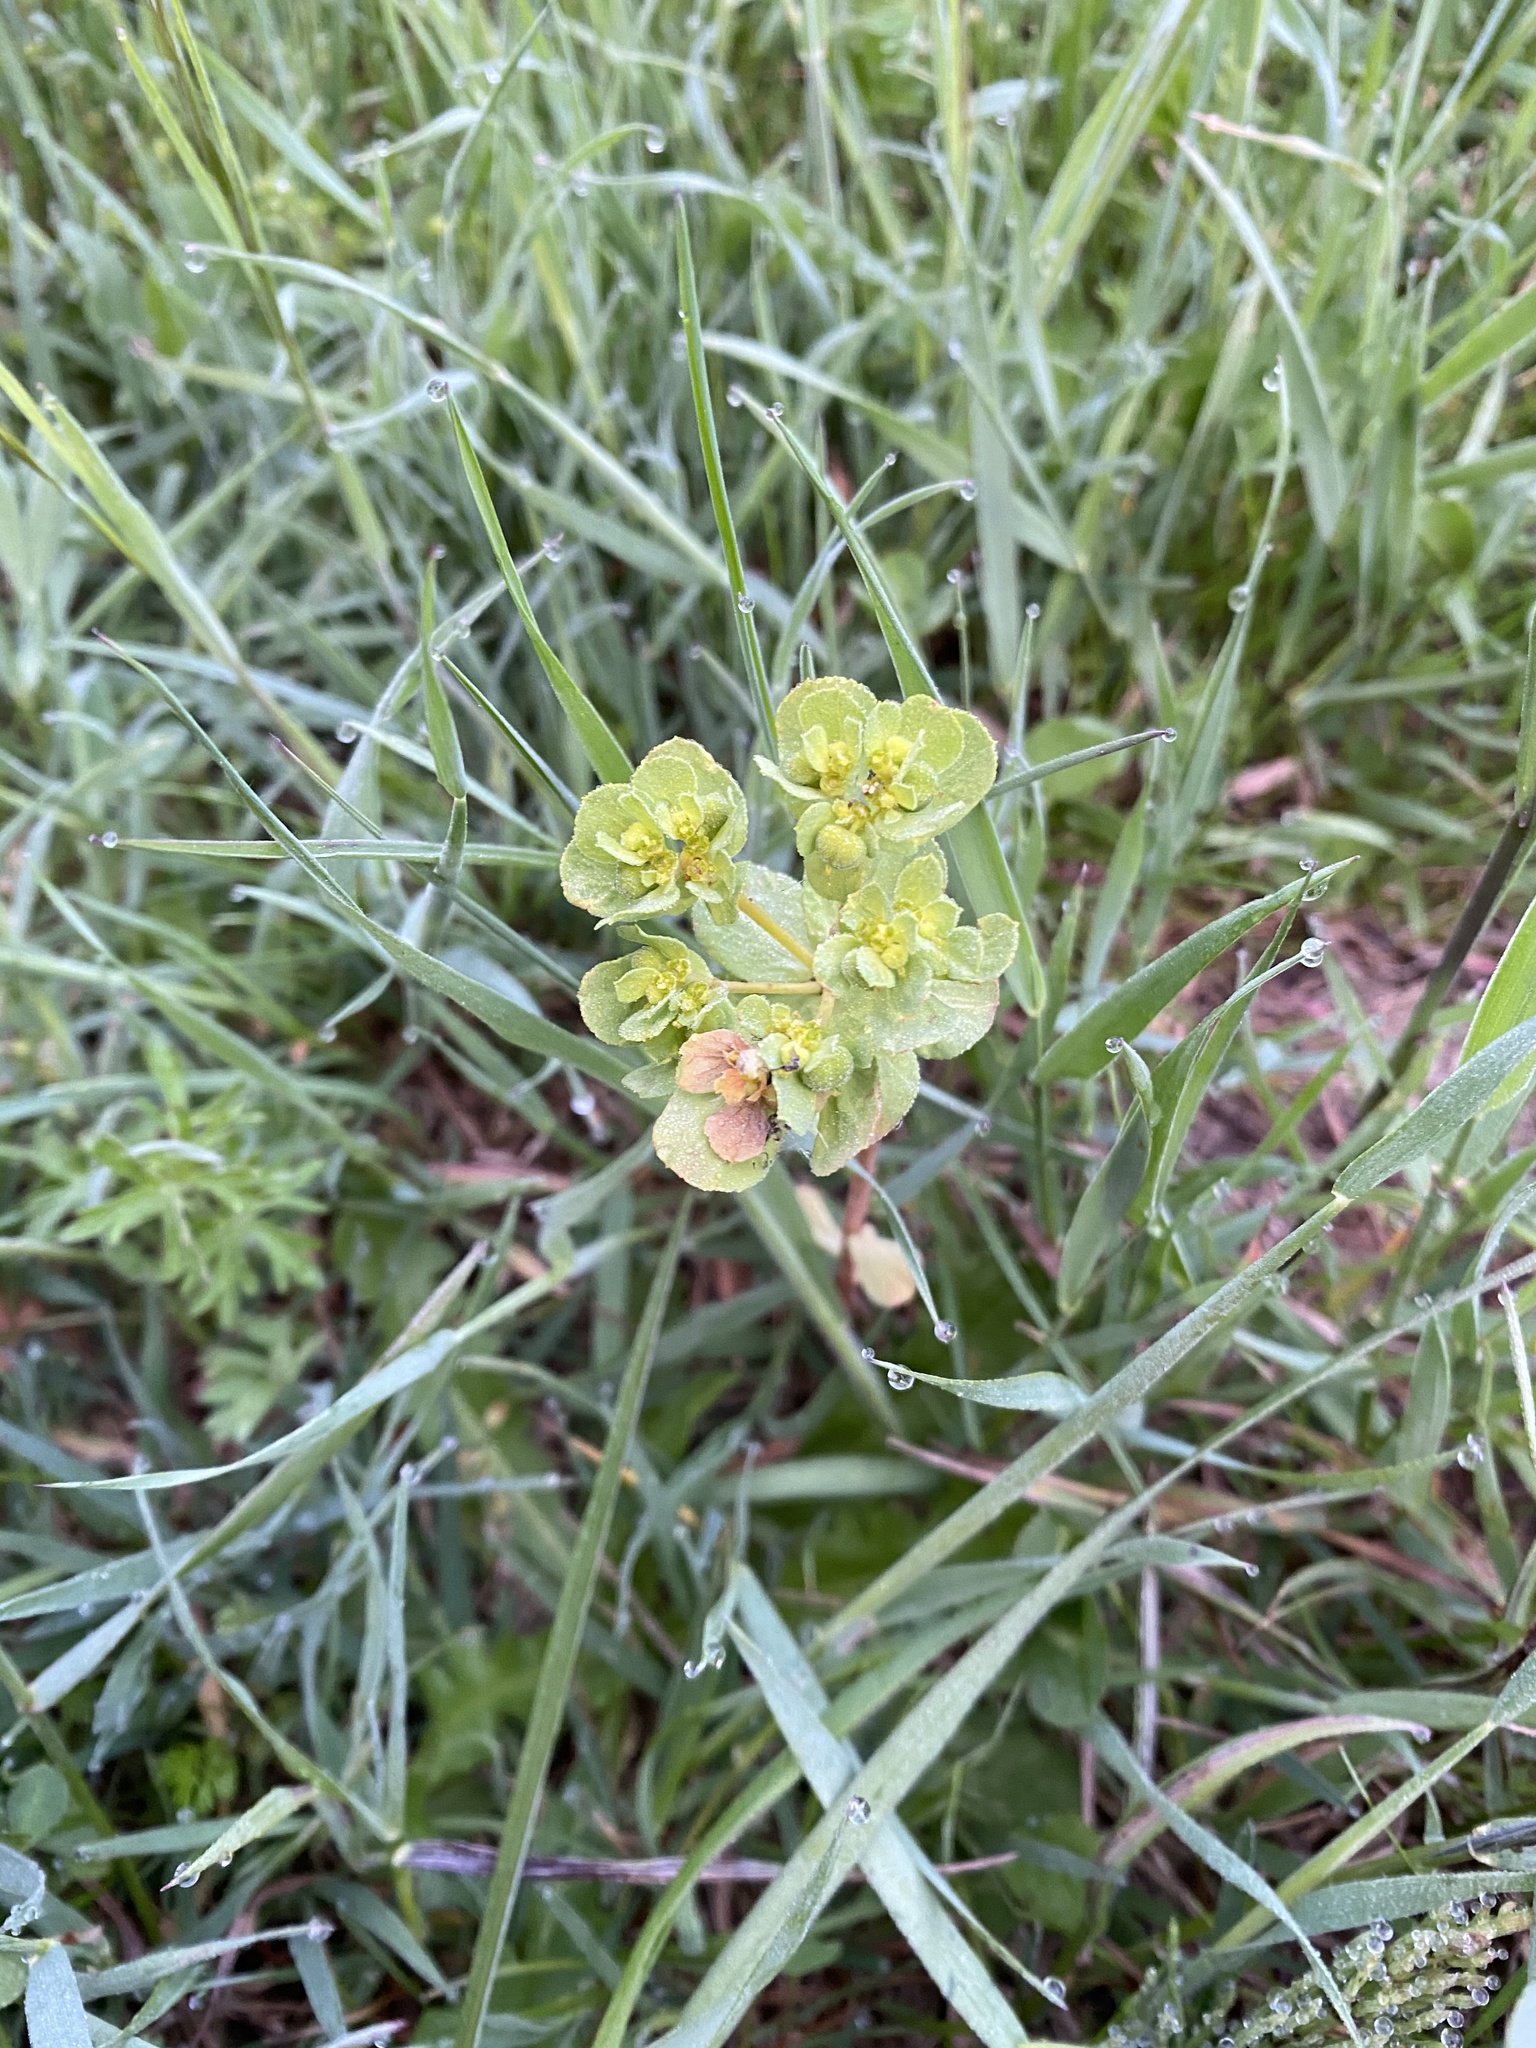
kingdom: Plantae
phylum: Tracheophyta
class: Magnoliopsida
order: Malpighiales
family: Euphorbiaceae
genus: Euphorbia
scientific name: Euphorbia helioscopia
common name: Sun spurge
